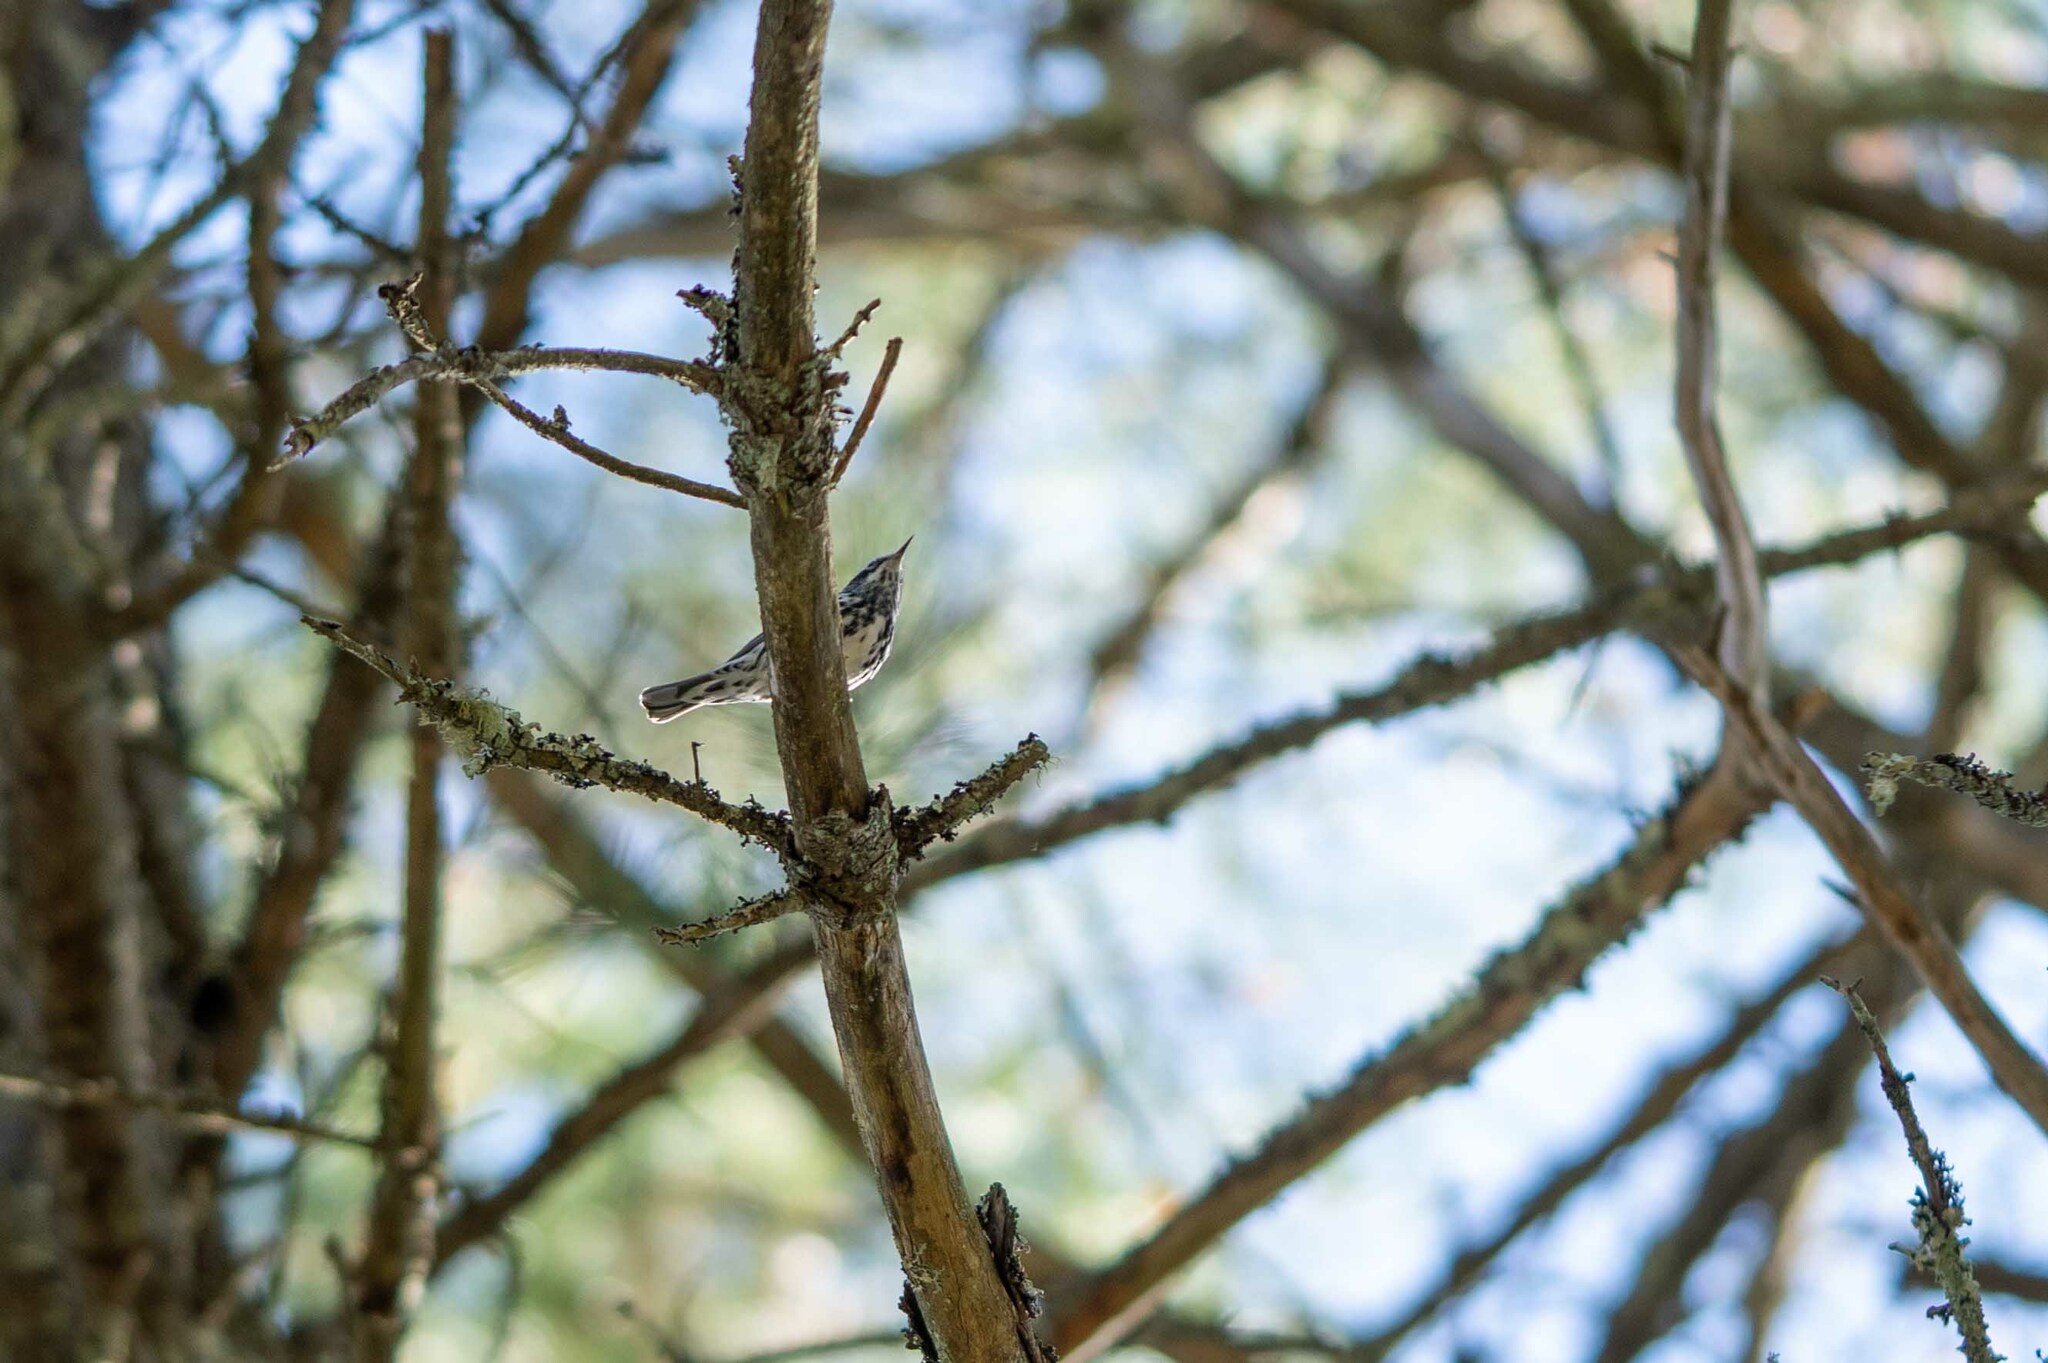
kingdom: Animalia
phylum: Chordata
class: Aves
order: Passeriformes
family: Parulidae
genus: Mniotilta
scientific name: Mniotilta varia
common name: Black-and-white warbler
